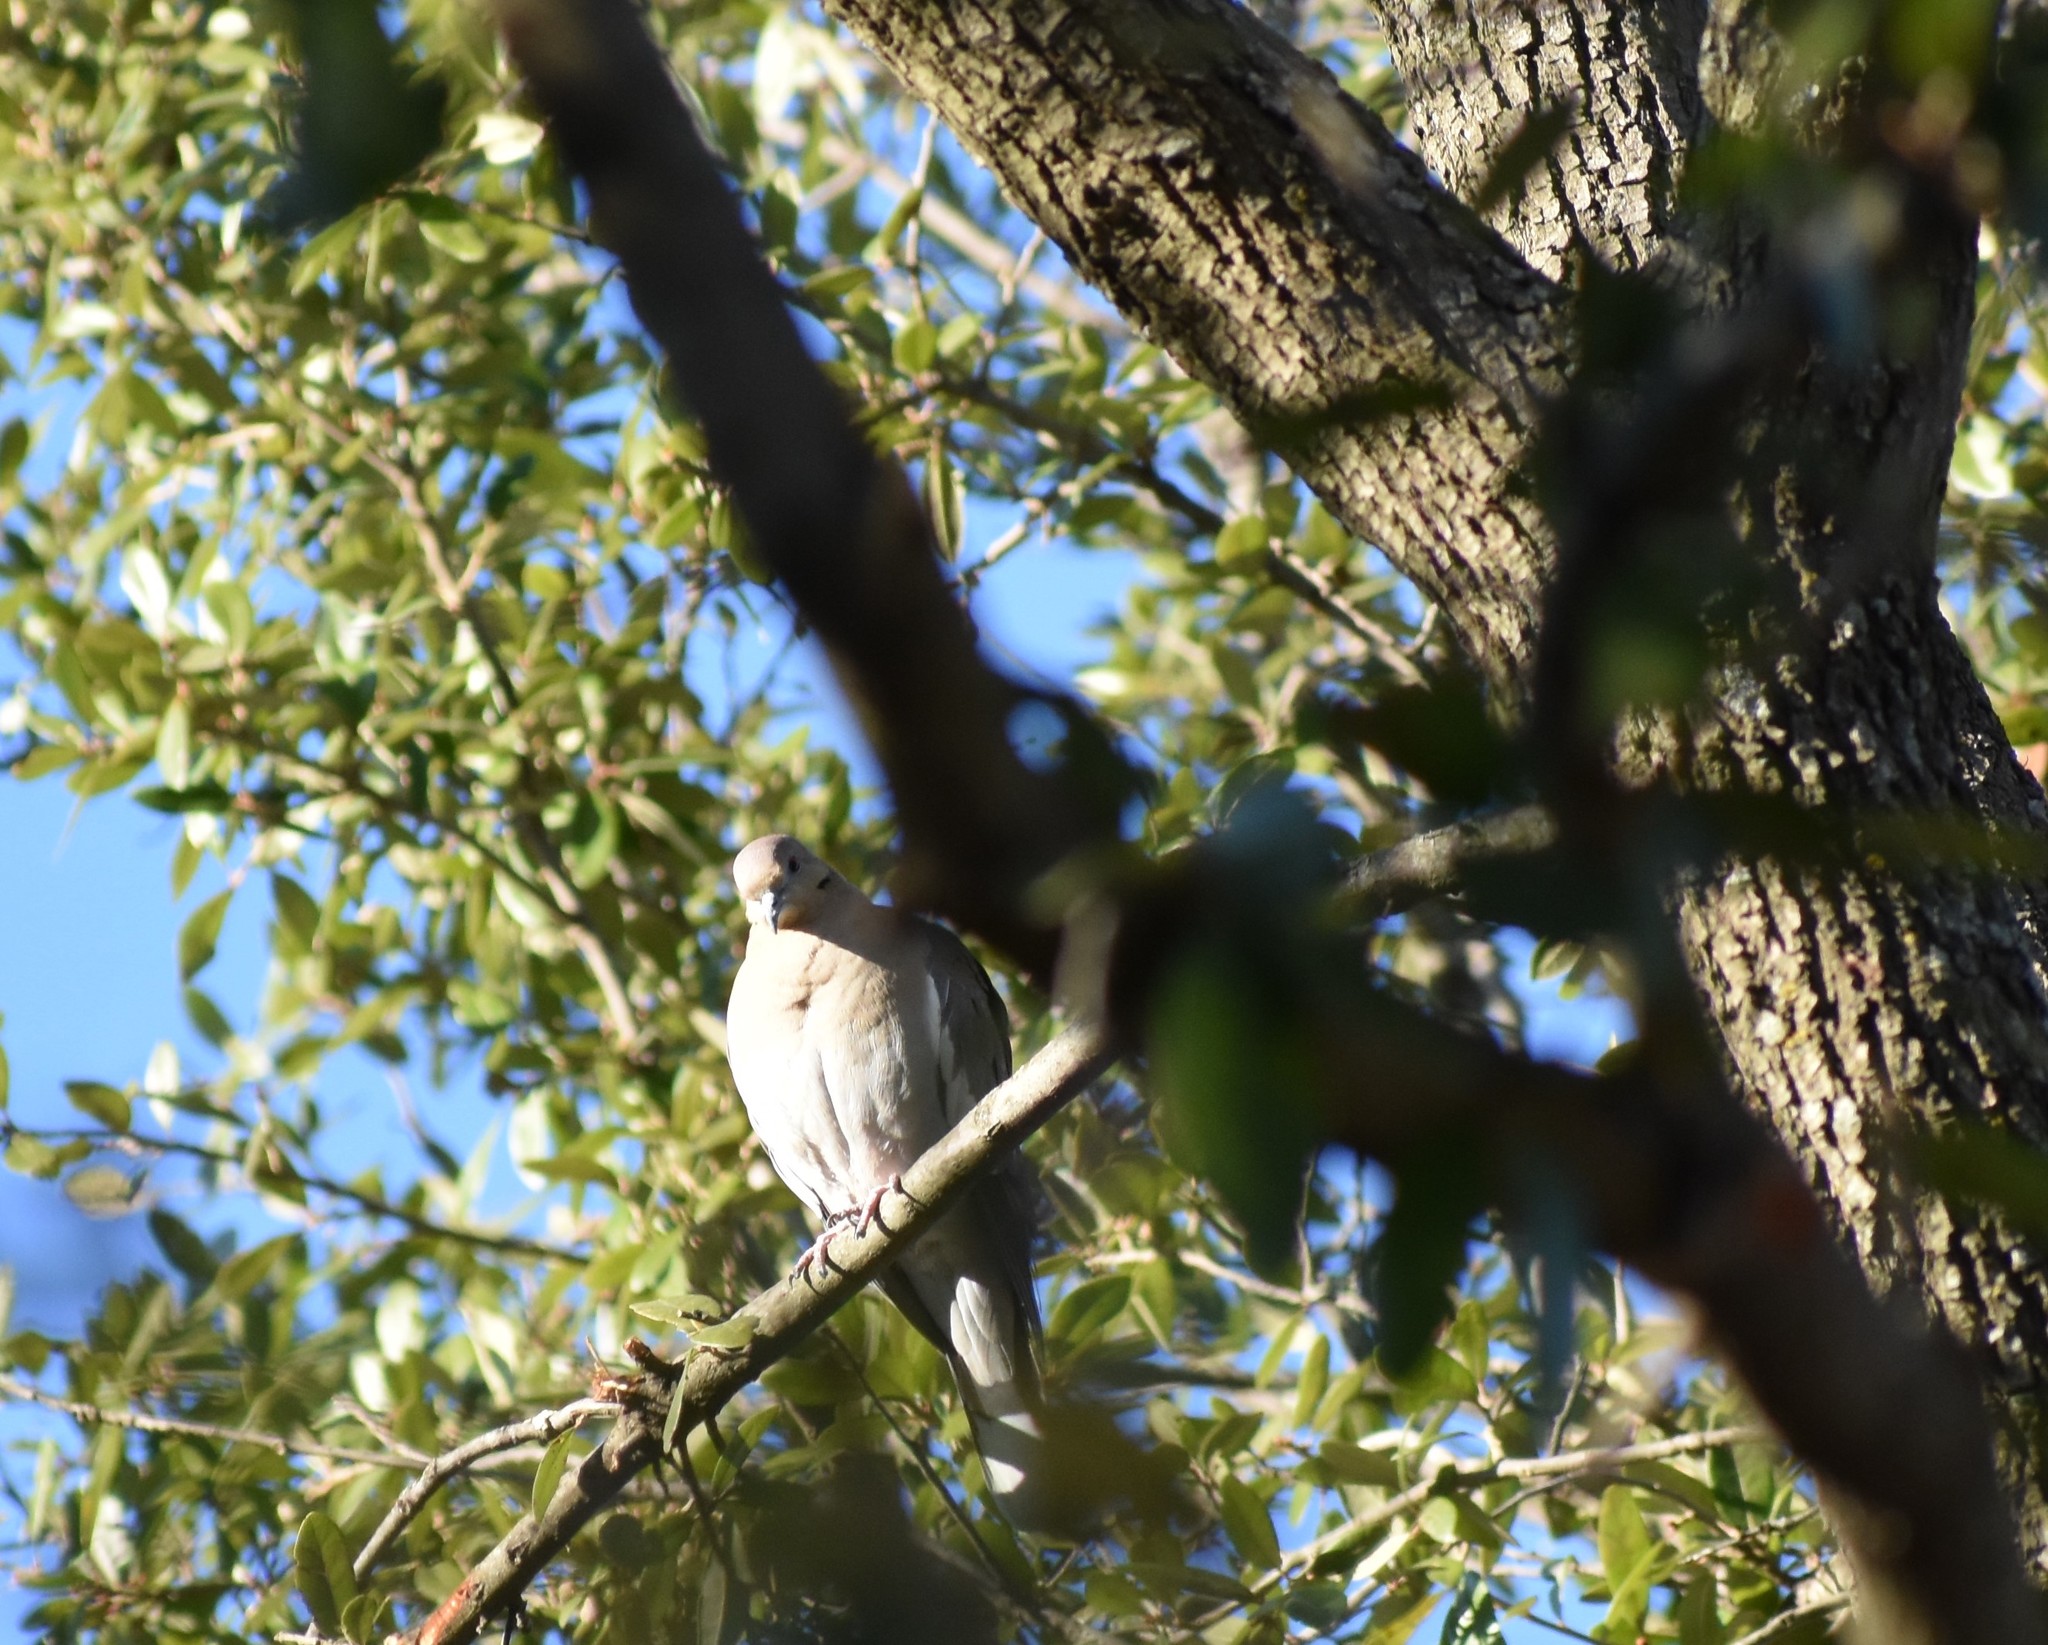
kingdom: Animalia
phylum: Chordata
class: Aves
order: Columbiformes
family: Columbidae
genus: Zenaida
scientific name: Zenaida asiatica
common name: White-winged dove
